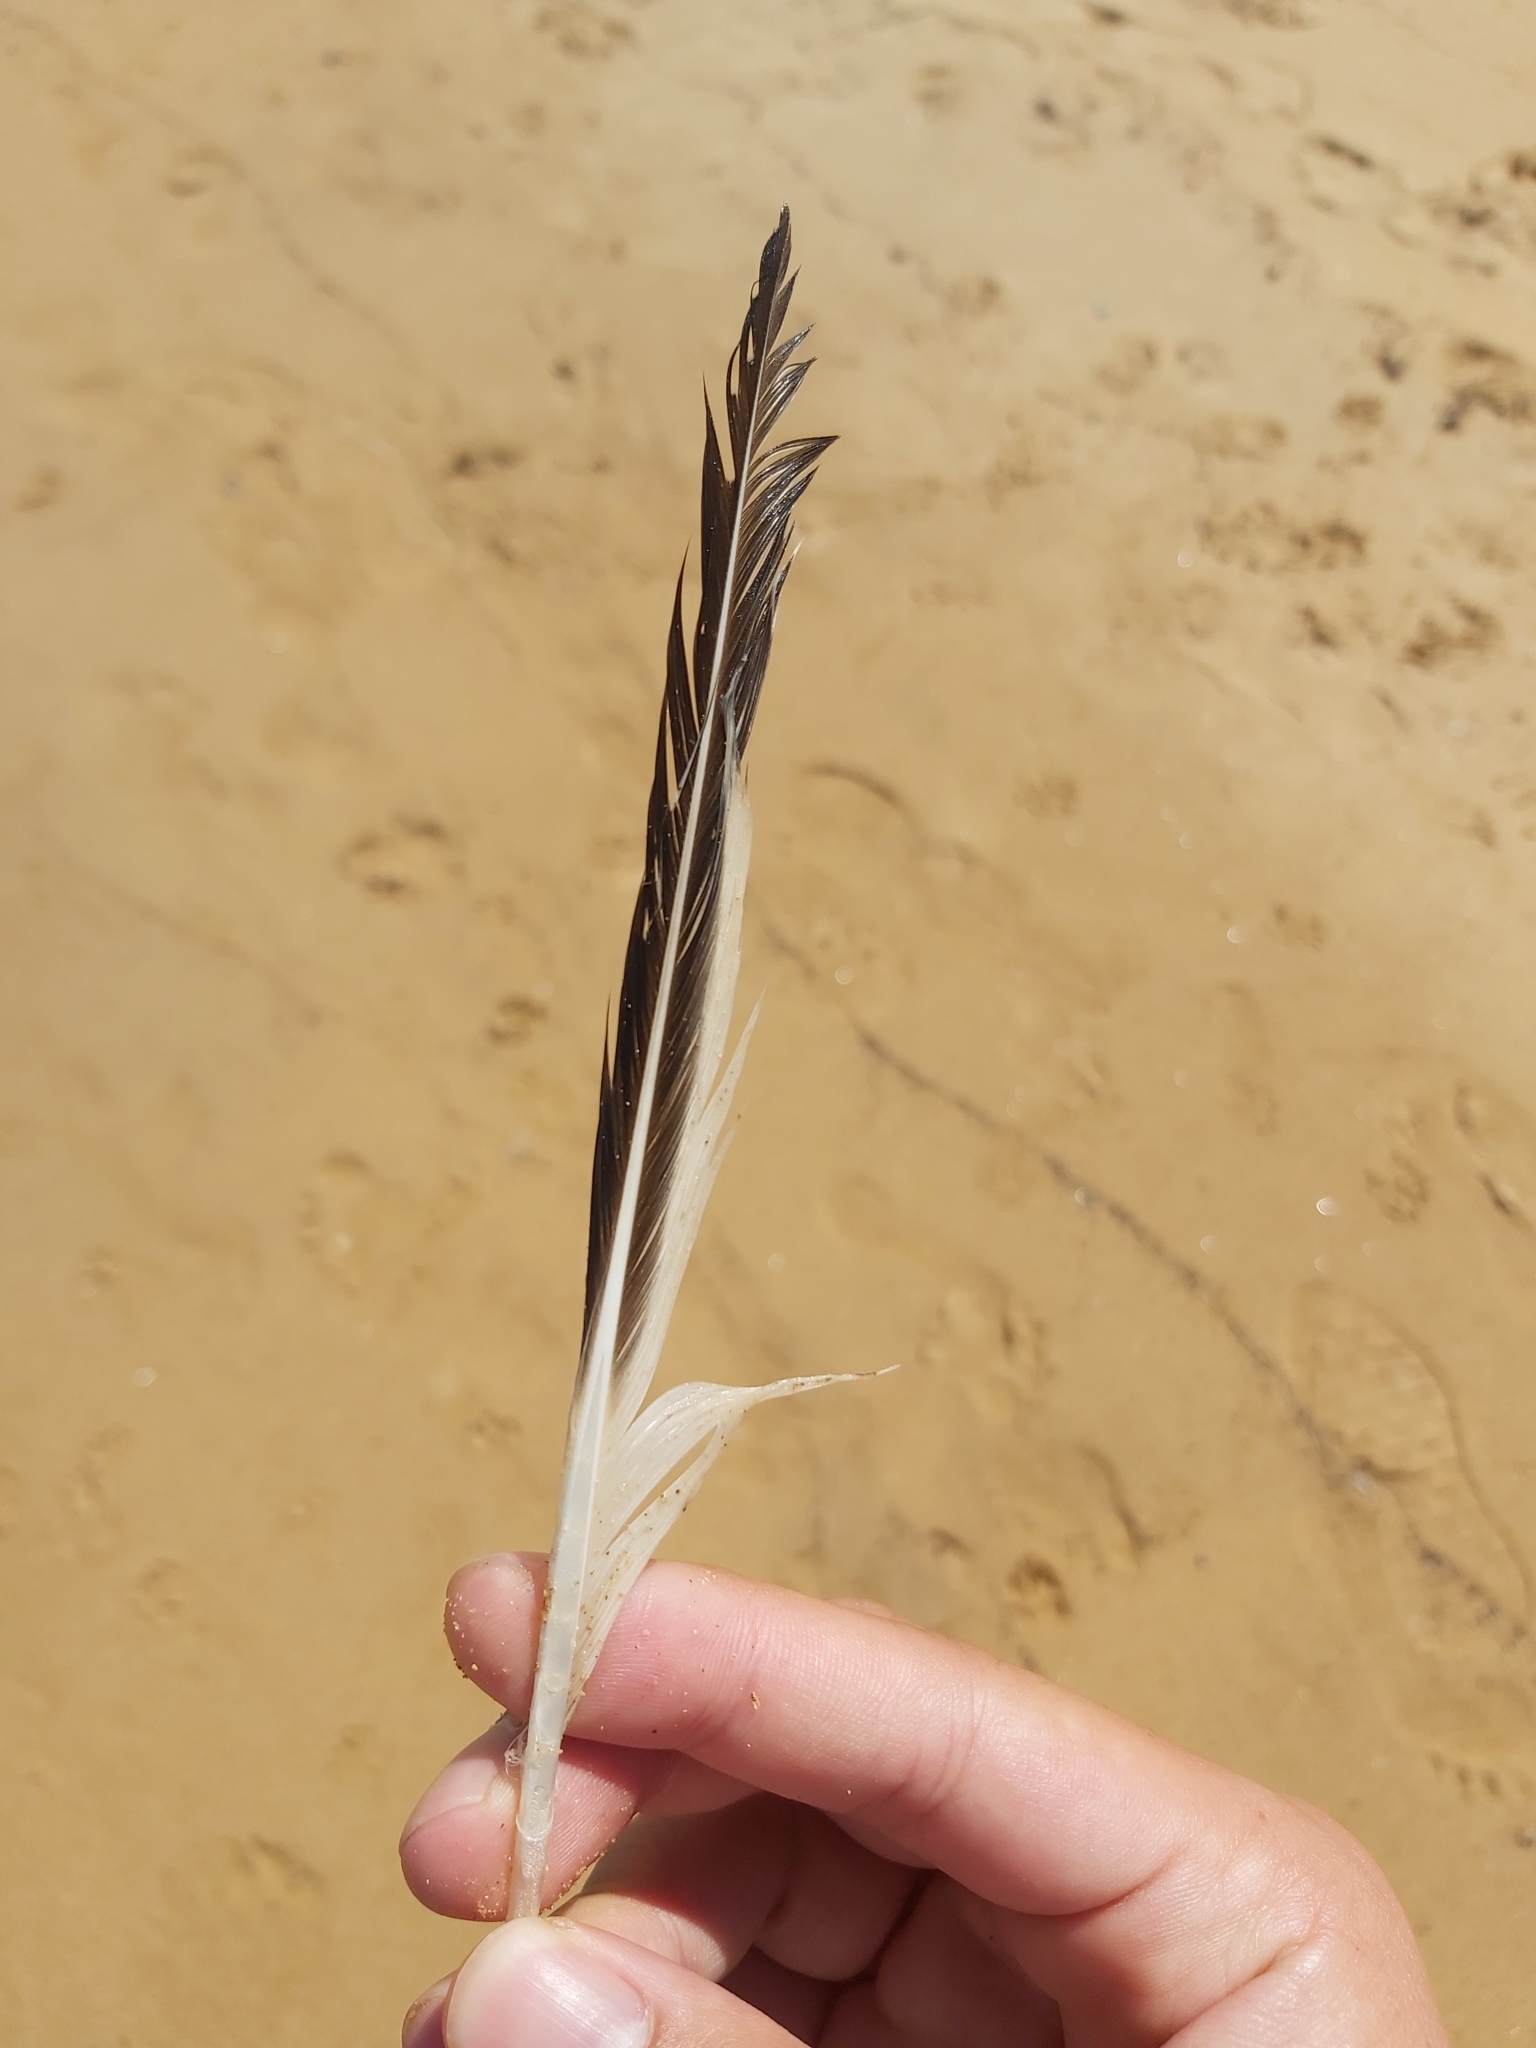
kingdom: Animalia
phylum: Chordata
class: Aves
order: Charadriiformes
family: Laridae
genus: Thalasseus
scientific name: Thalasseus bergii
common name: Greater crested tern
